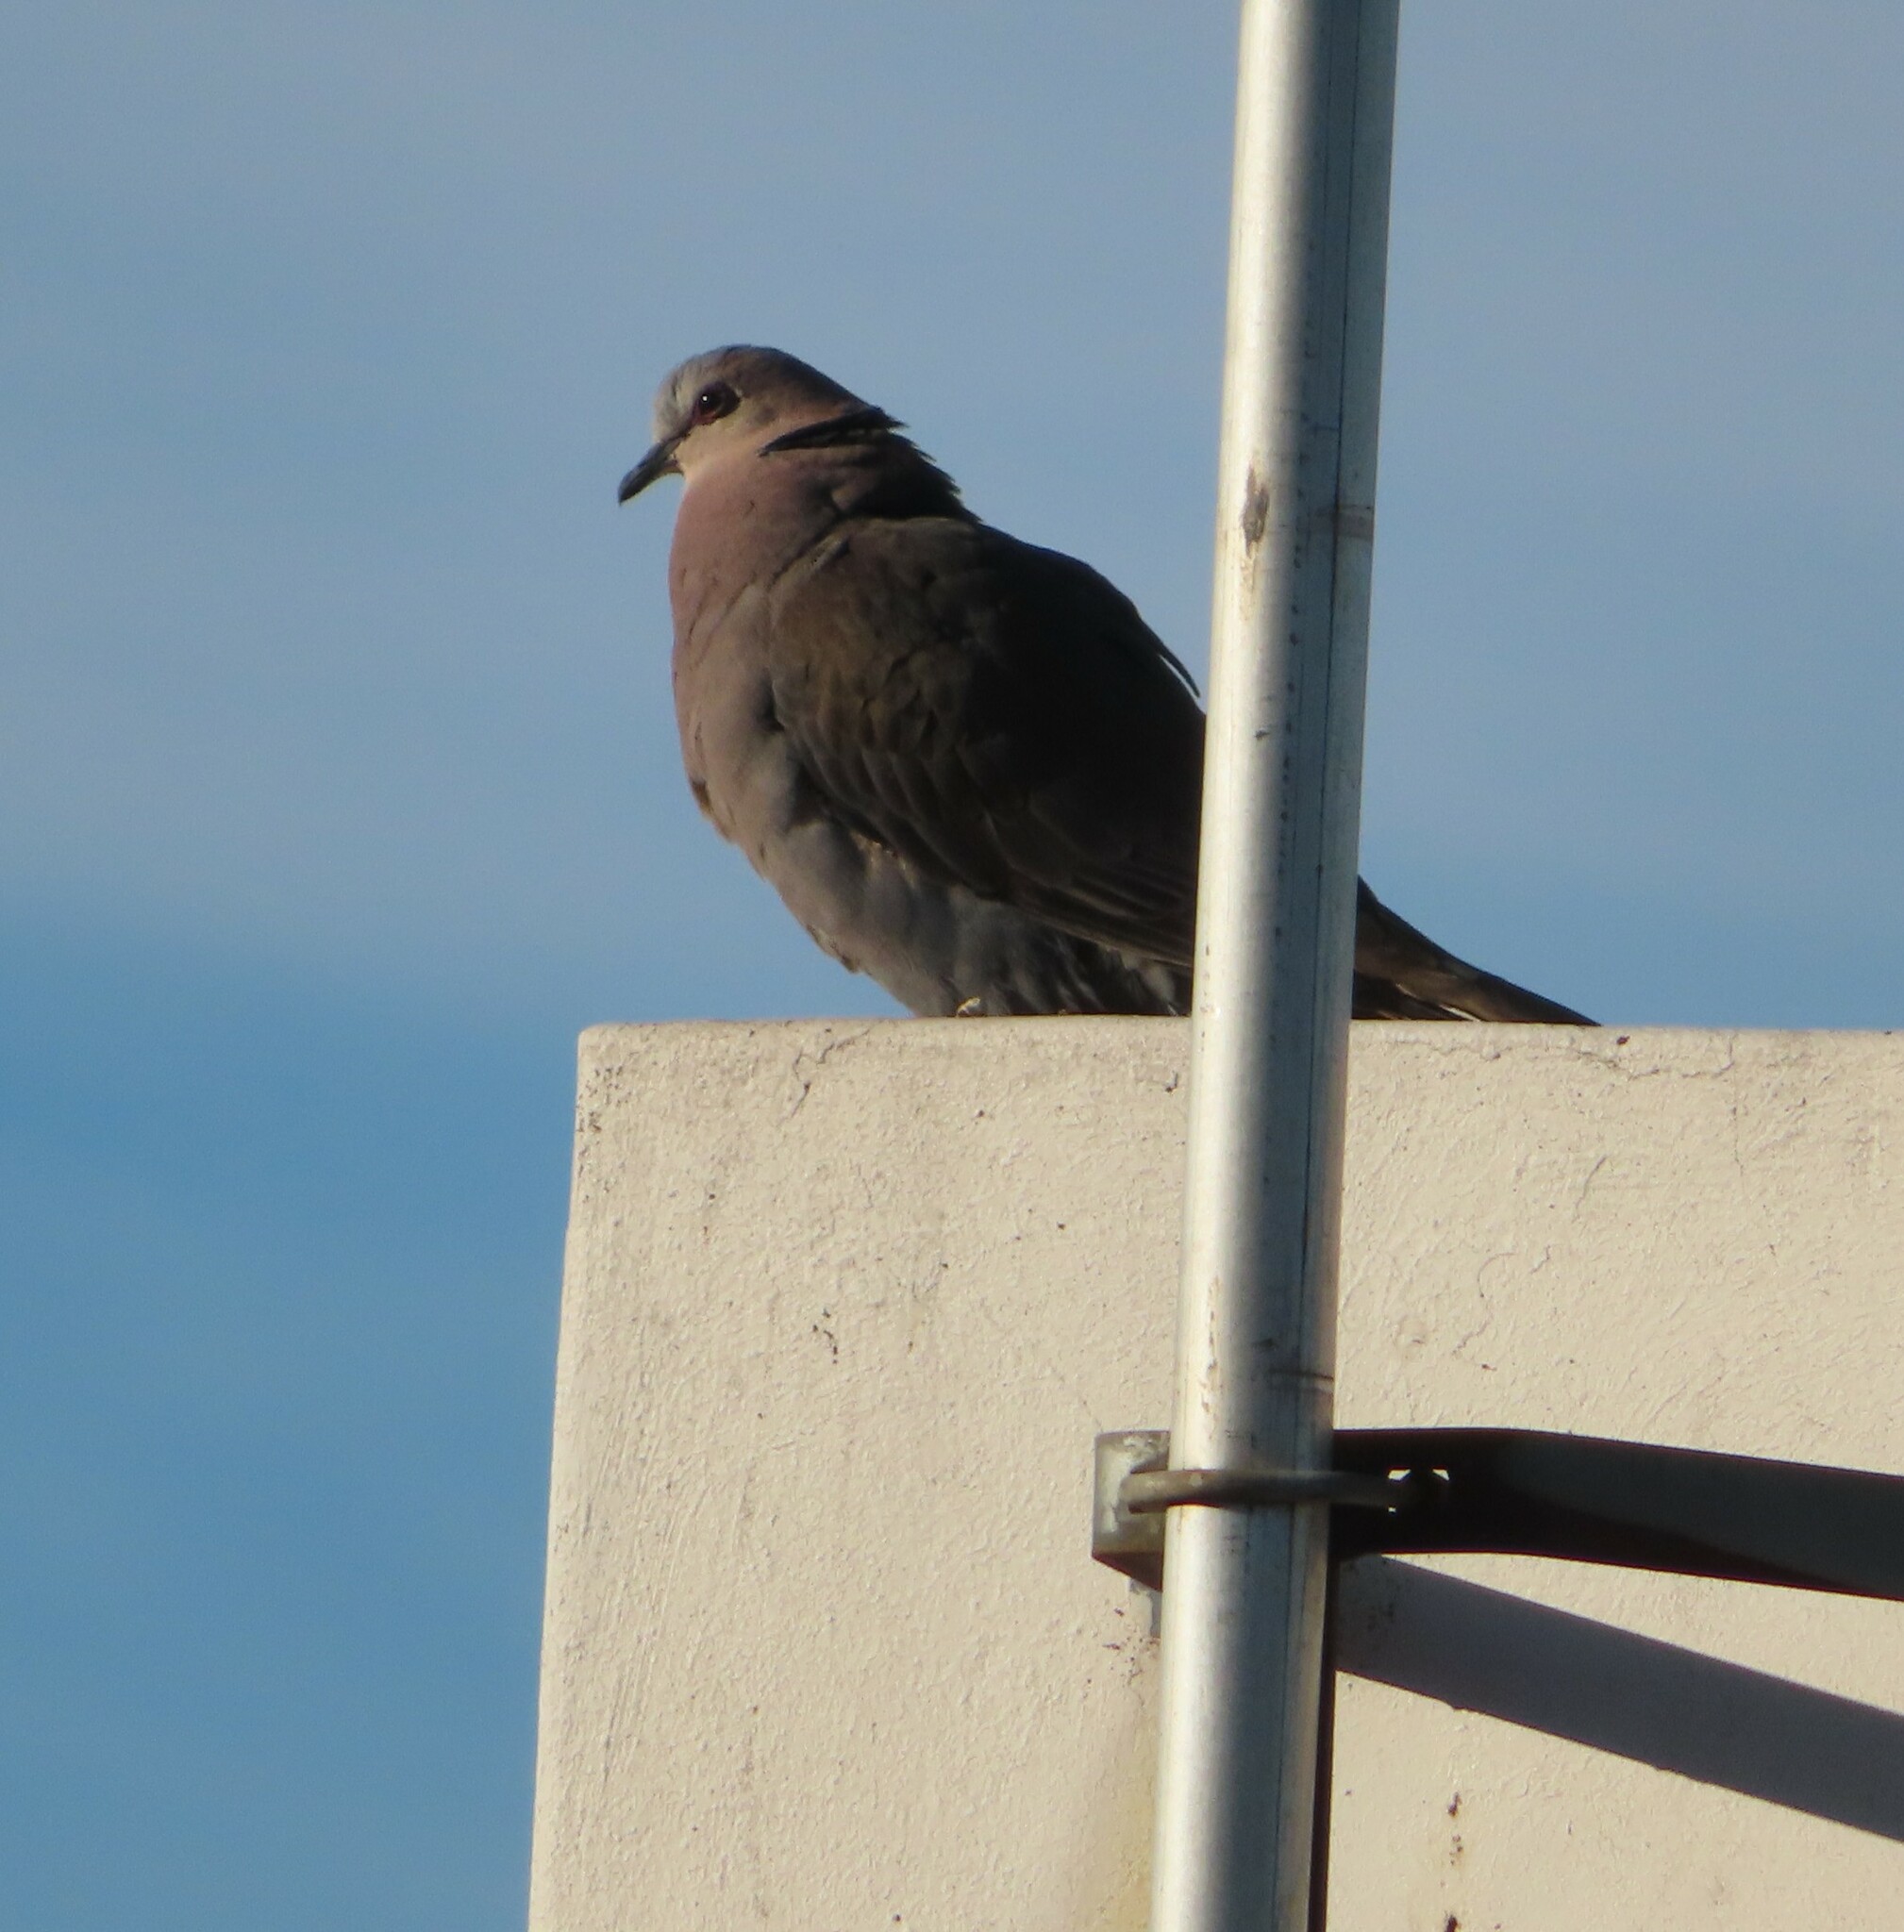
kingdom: Animalia
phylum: Chordata
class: Aves
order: Columbiformes
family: Columbidae
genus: Streptopelia
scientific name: Streptopelia semitorquata
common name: Red-eyed dove
